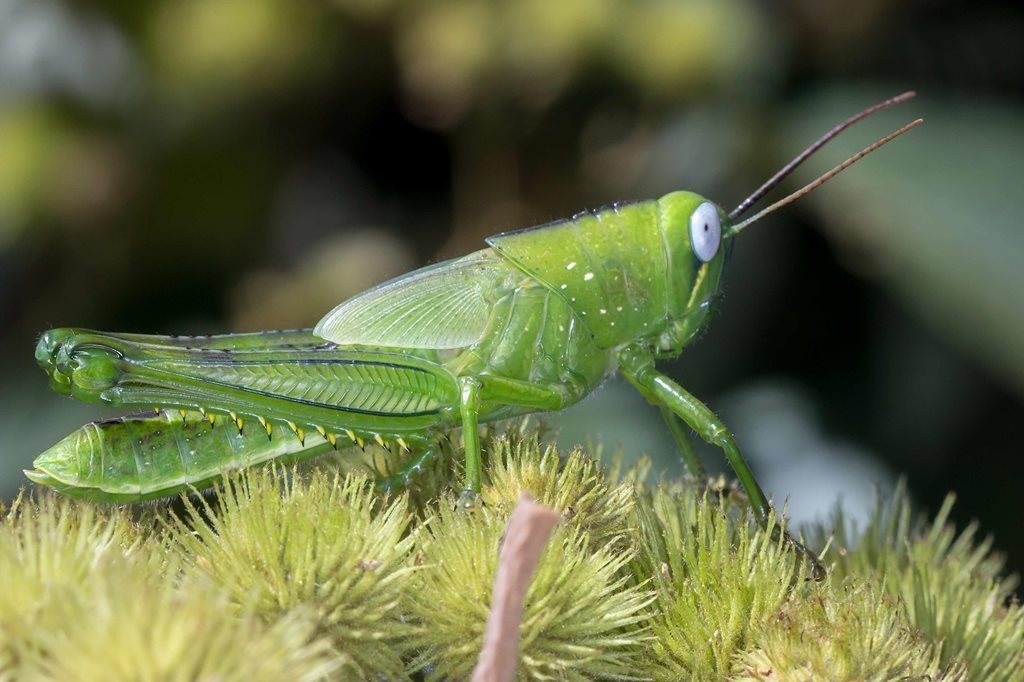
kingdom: Animalia
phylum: Arthropoda
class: Insecta
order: Orthoptera
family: Acrididae
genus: Valanga
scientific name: Valanga irregularis
